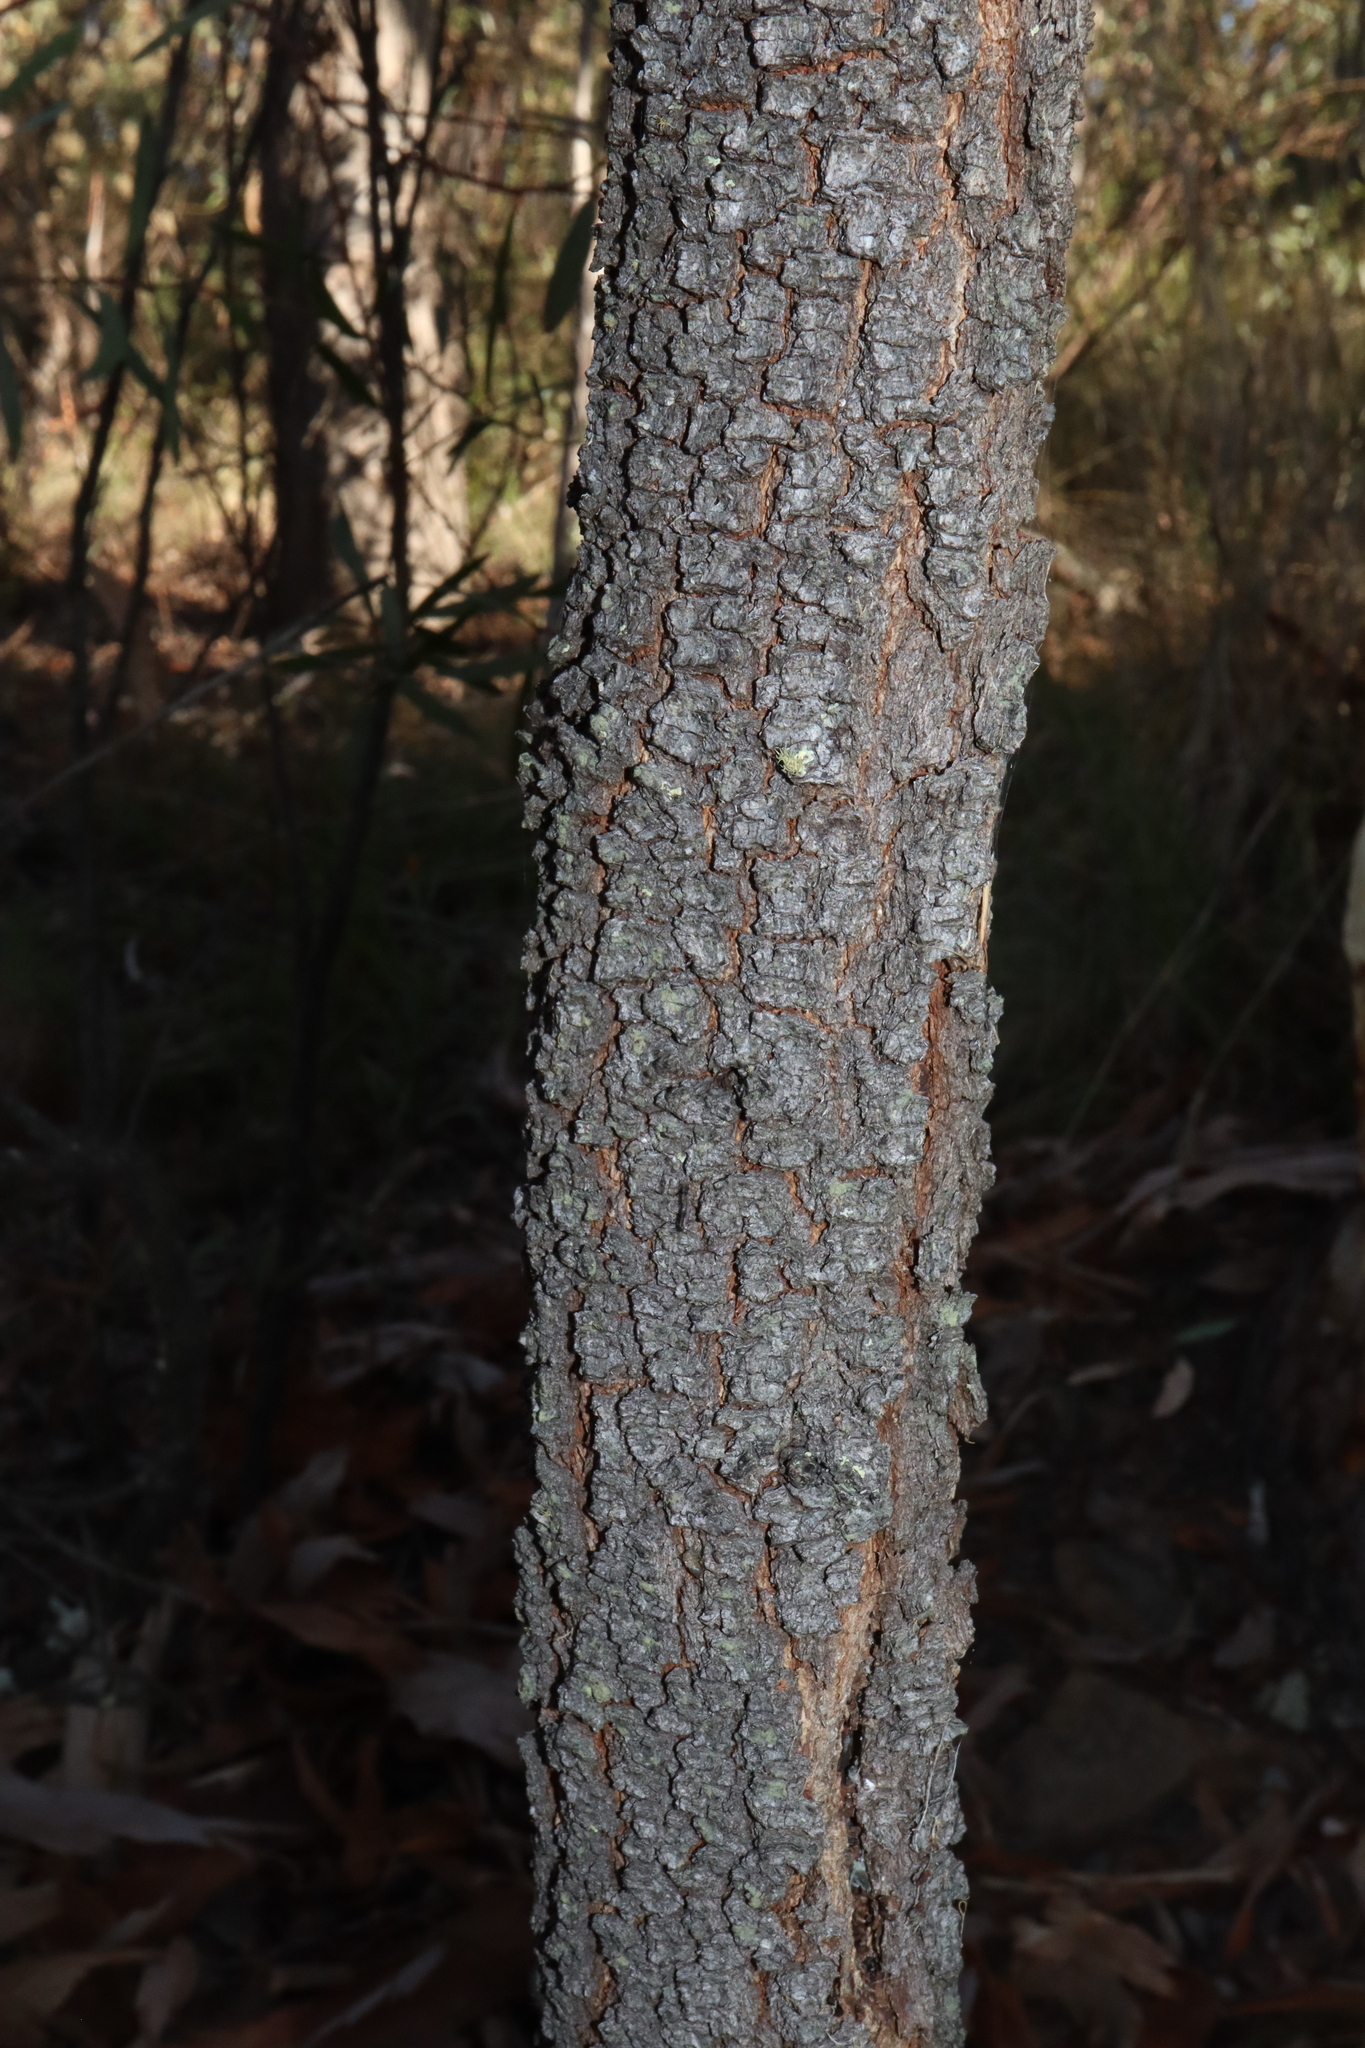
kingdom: Plantae
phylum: Tracheophyta
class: Magnoliopsida
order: Fabales
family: Fabaceae
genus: Acacia
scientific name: Acacia implexa
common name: Black wattle
